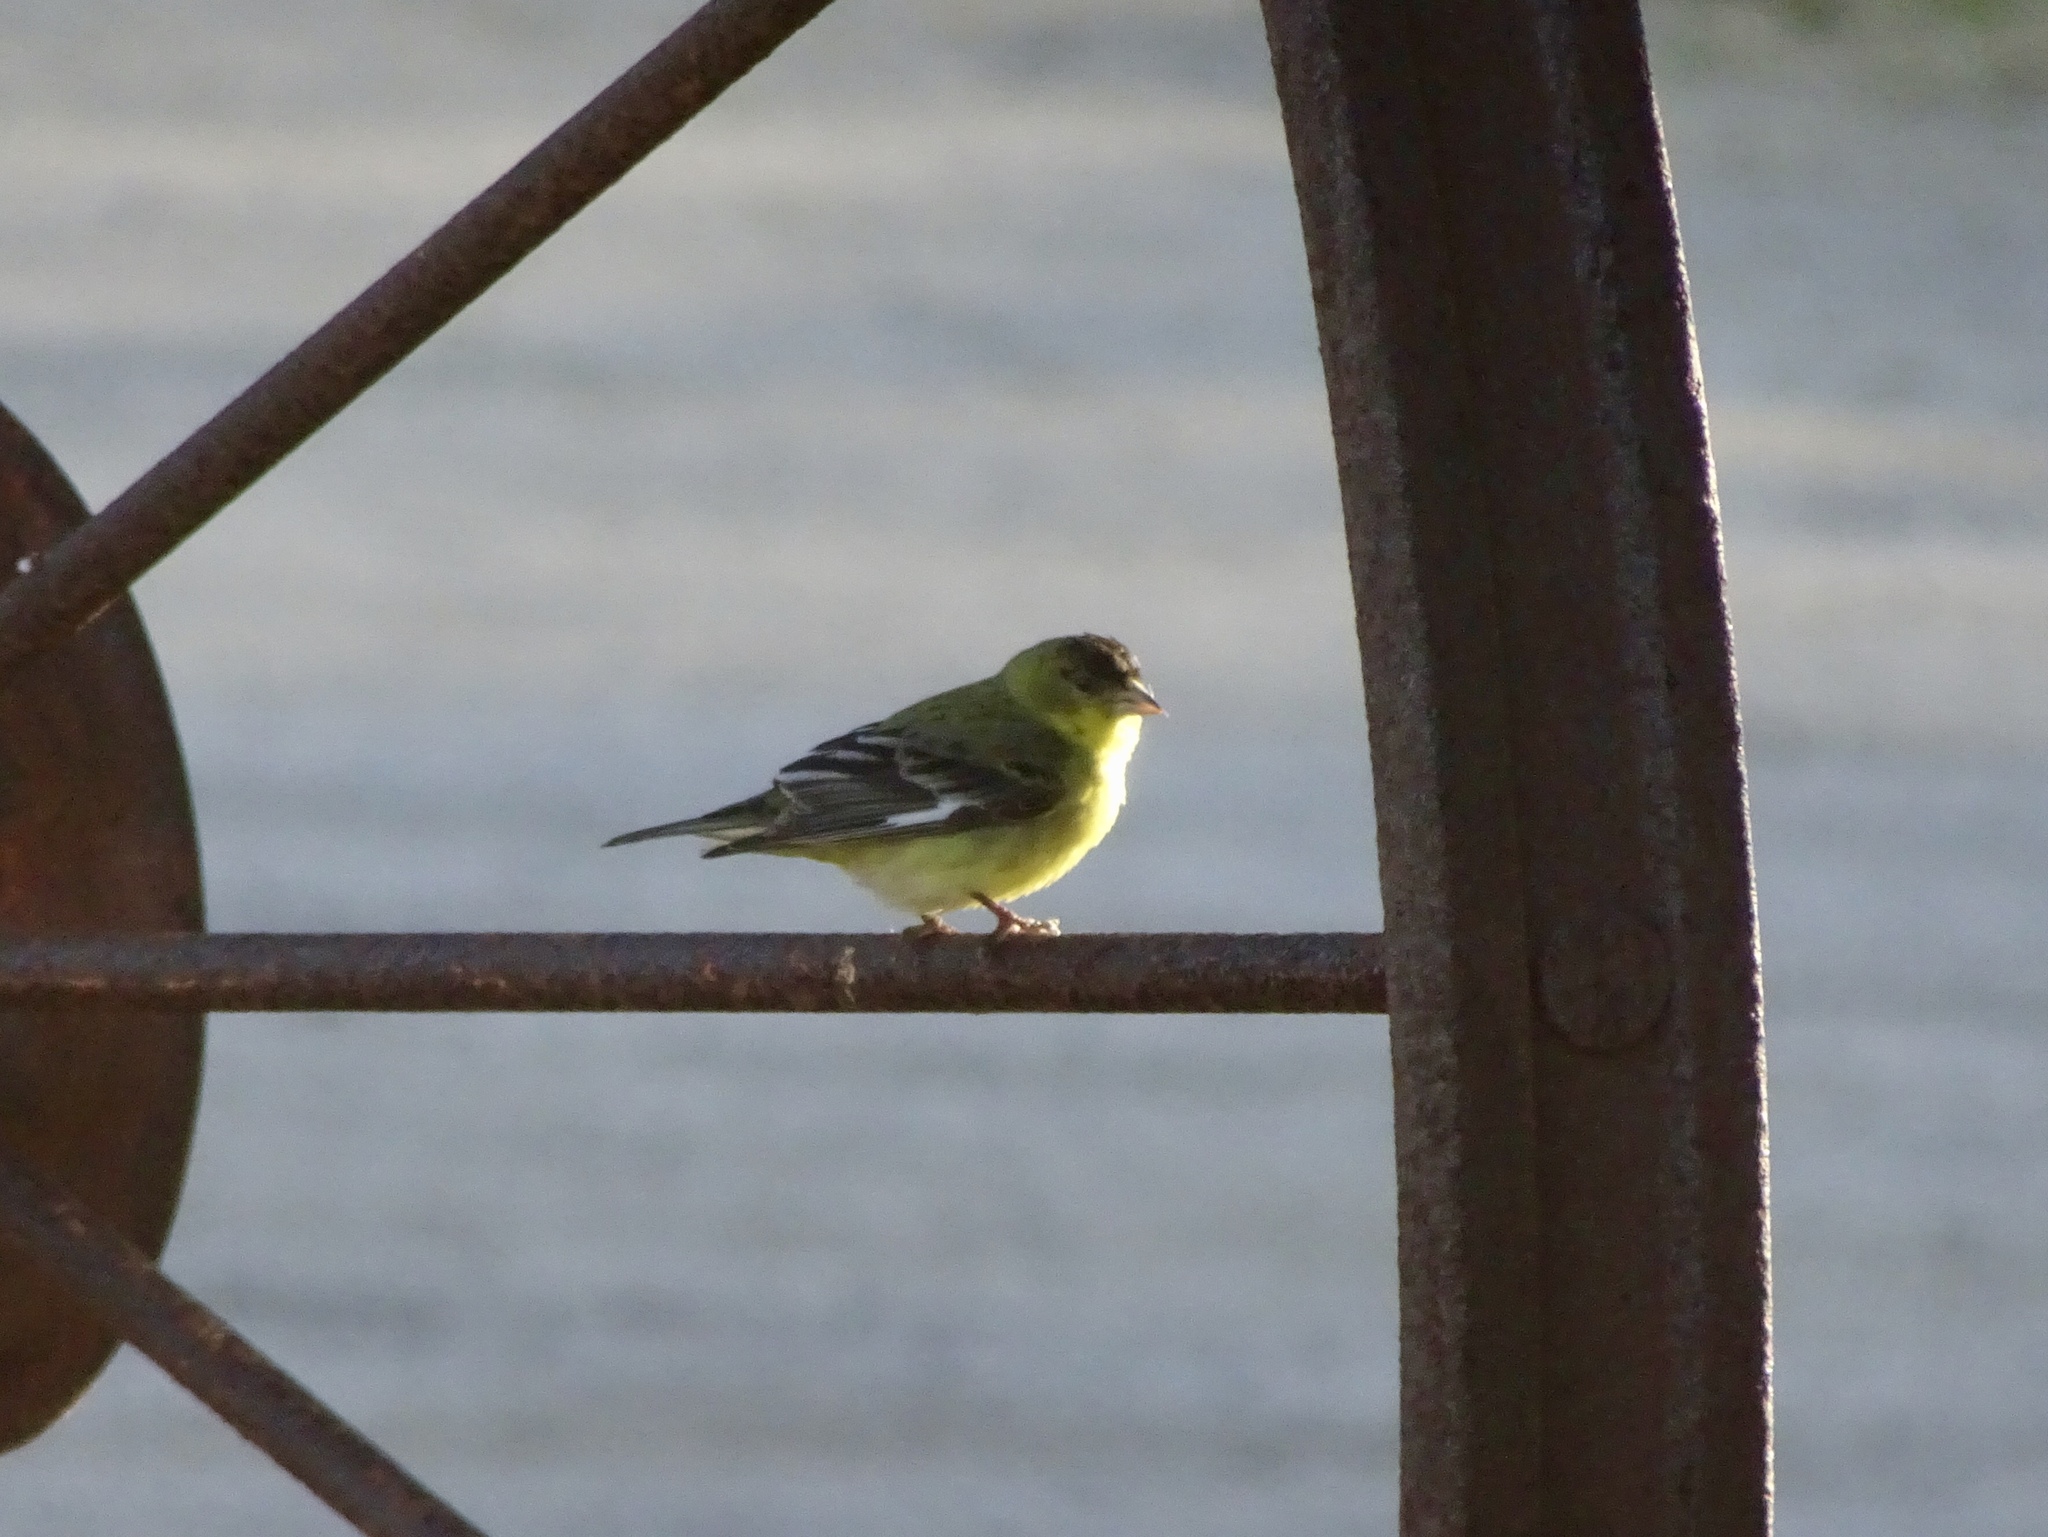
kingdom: Animalia
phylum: Chordata
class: Aves
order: Passeriformes
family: Fringillidae
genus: Spinus
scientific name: Spinus psaltria
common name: Lesser goldfinch
